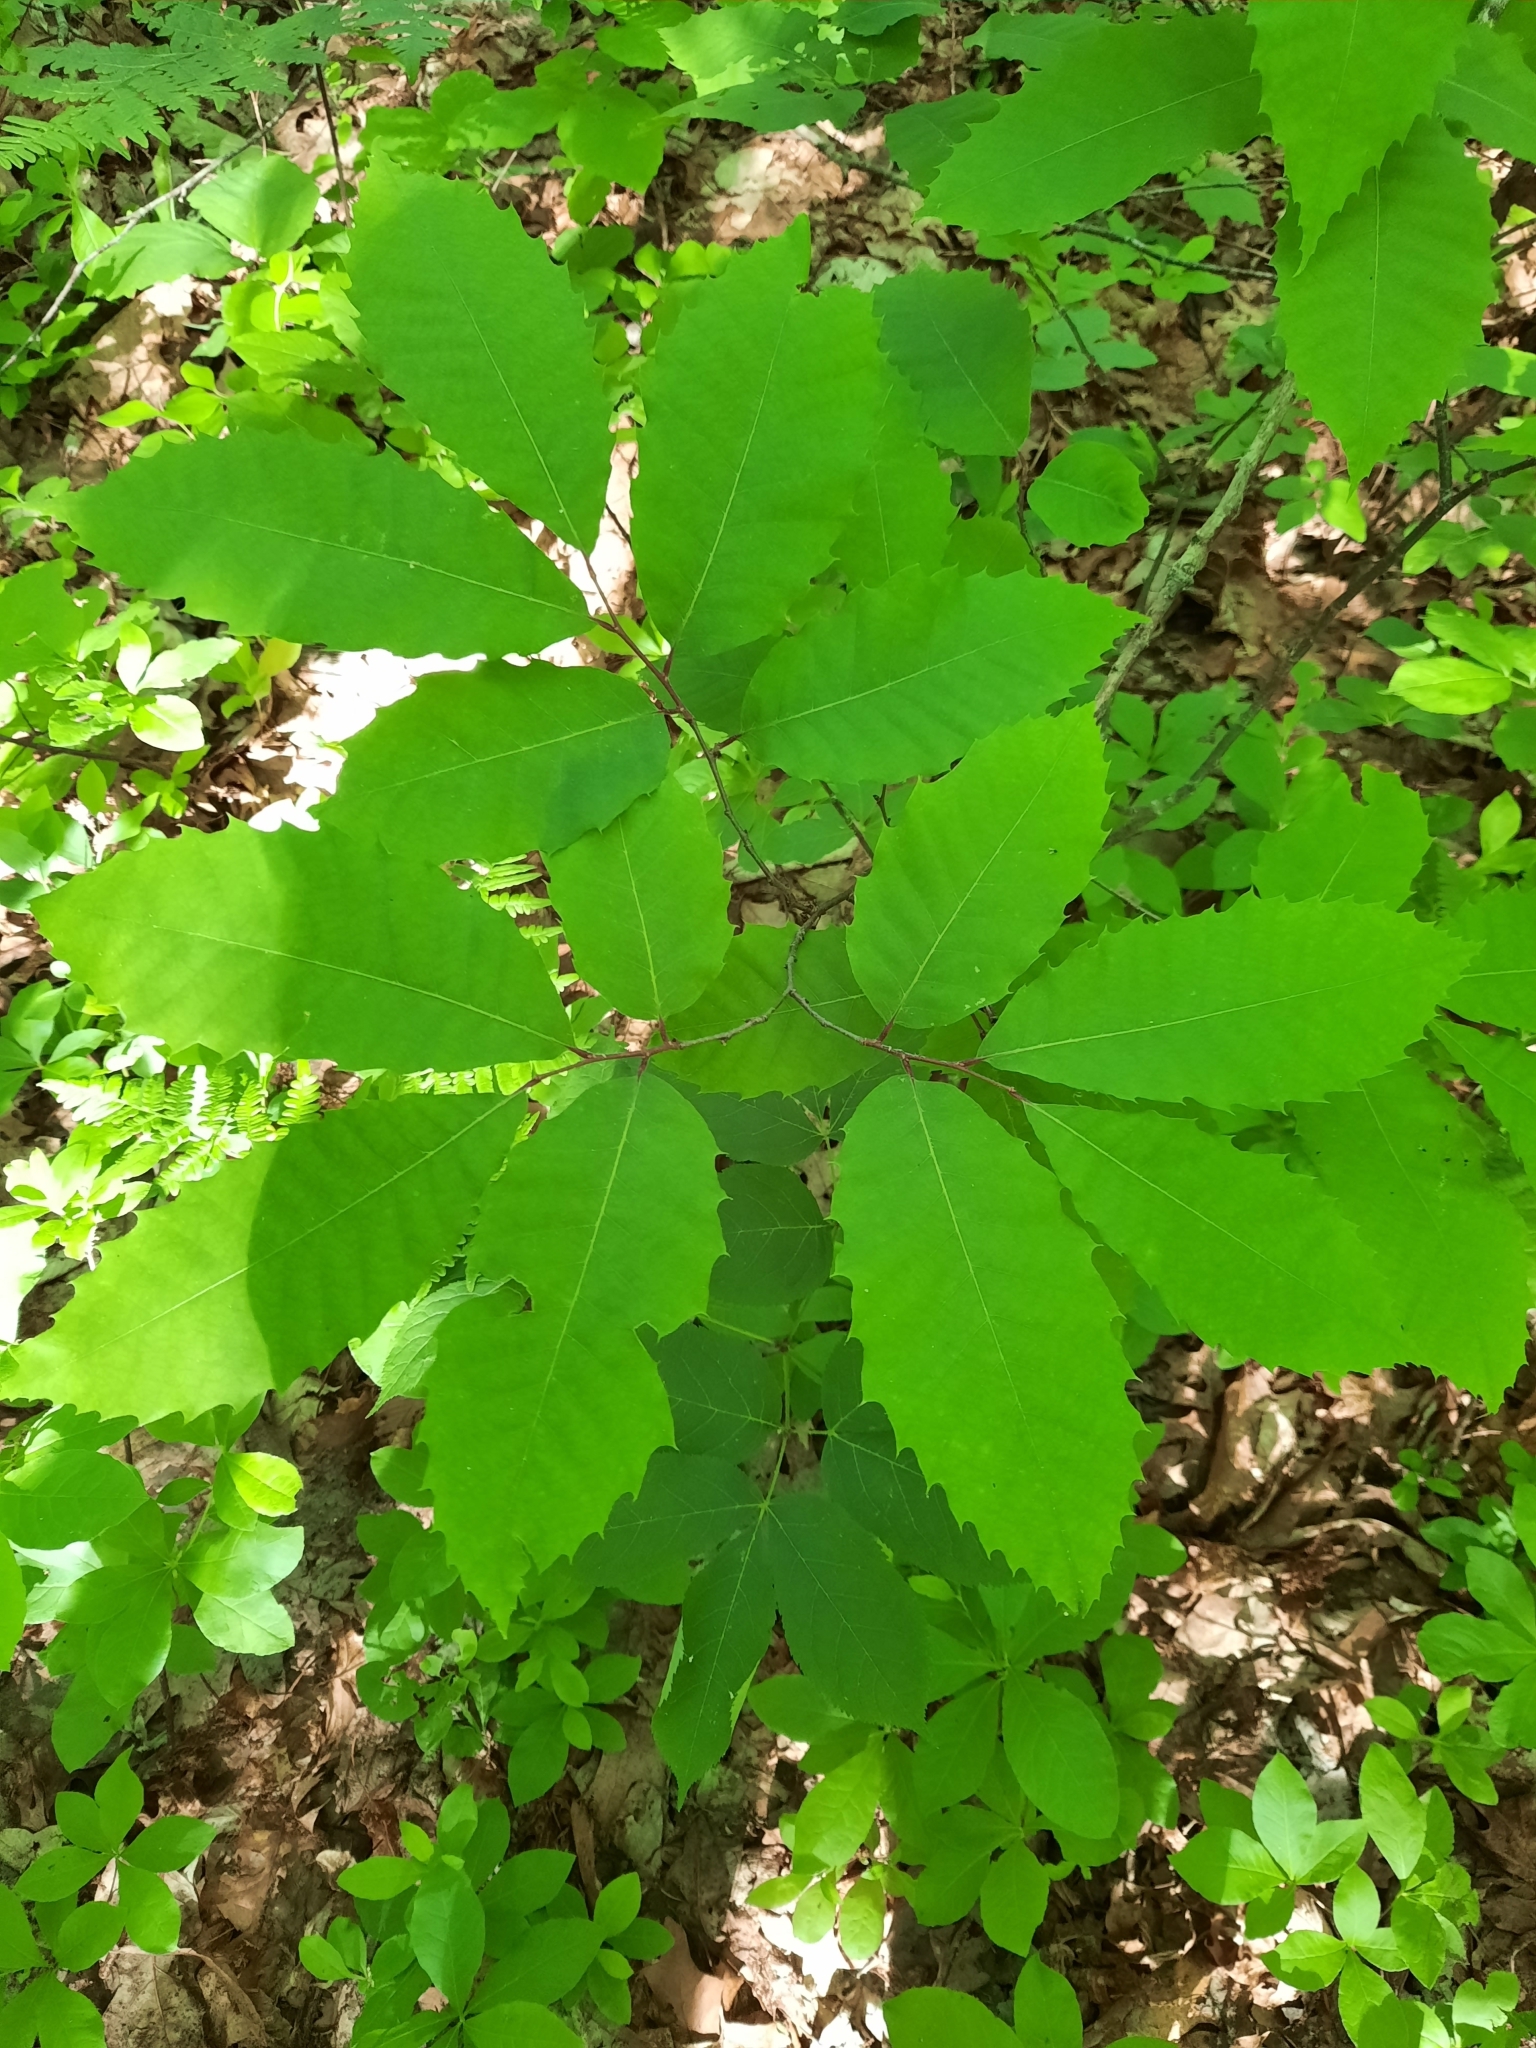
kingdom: Plantae
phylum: Tracheophyta
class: Magnoliopsida
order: Fagales
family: Fagaceae
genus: Castanea
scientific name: Castanea dentata
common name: American chestnut
